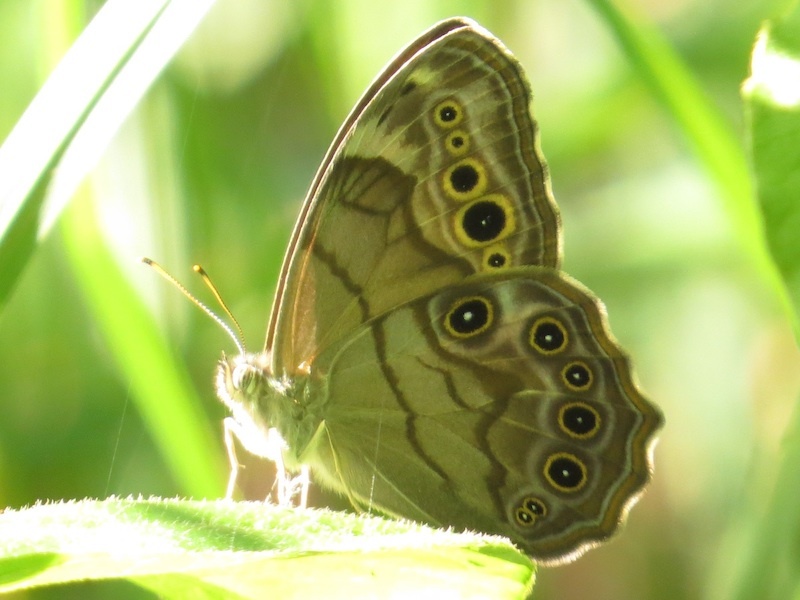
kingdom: Animalia
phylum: Arthropoda
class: Insecta
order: Lepidoptera
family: Nymphalidae
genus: Lethe
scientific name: Lethe anthedon
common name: Northern pearly-eye
